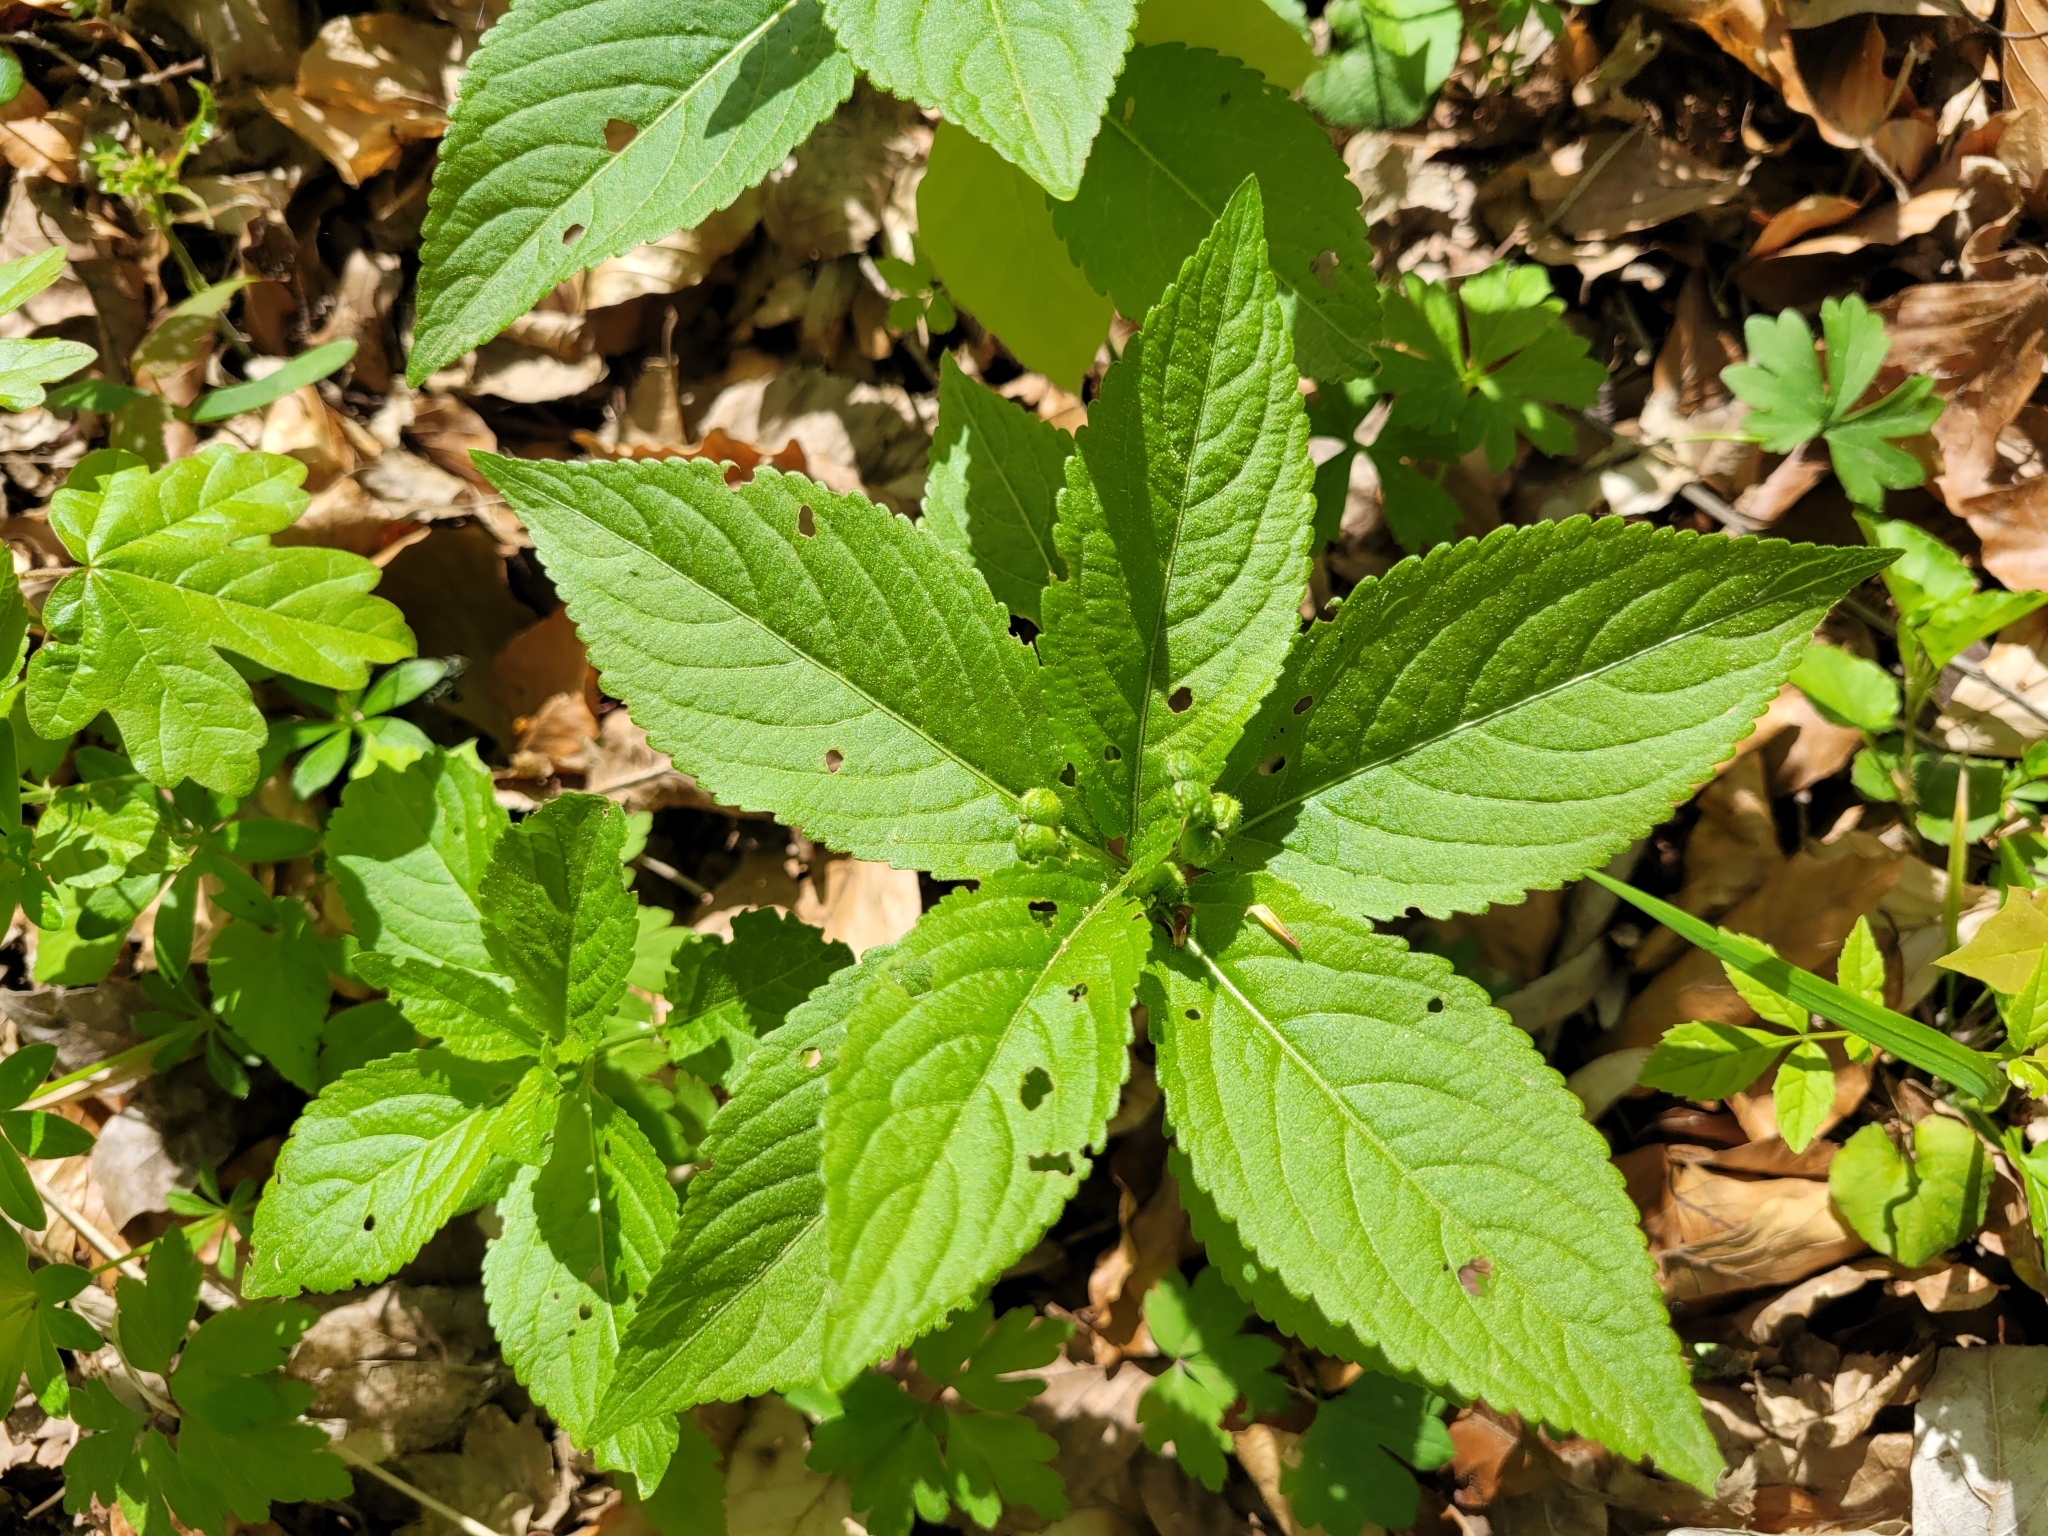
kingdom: Plantae
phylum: Tracheophyta
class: Magnoliopsida
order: Malpighiales
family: Euphorbiaceae
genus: Mercurialis
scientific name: Mercurialis perennis
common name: Dog mercury
